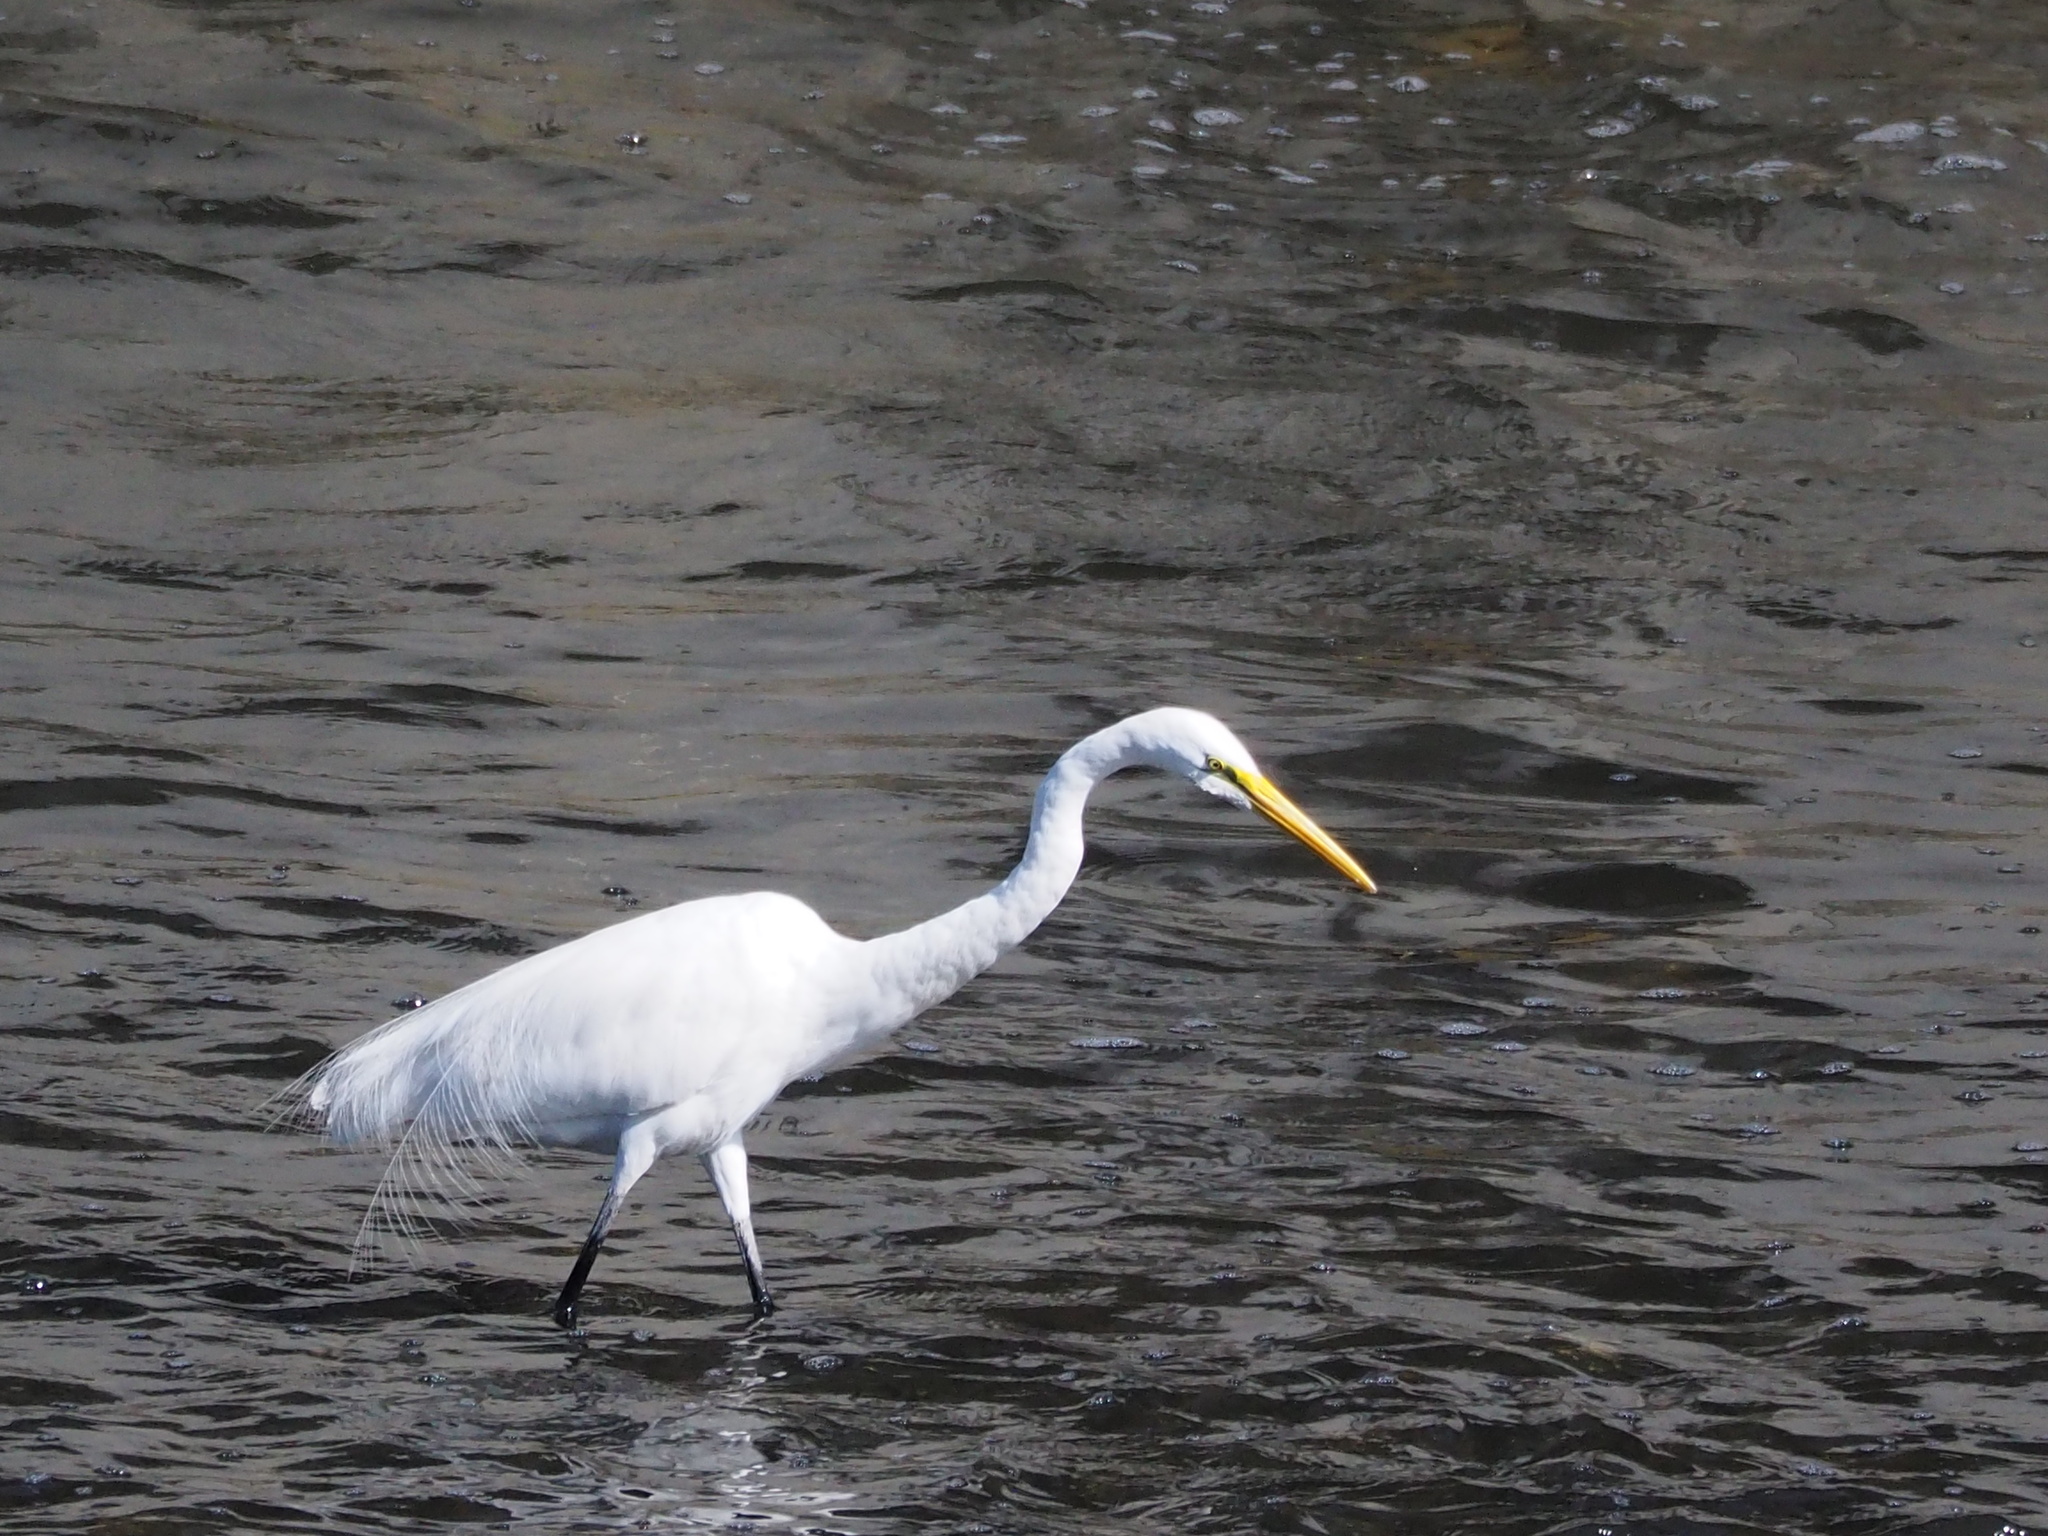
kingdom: Animalia
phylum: Chordata
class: Aves
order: Pelecaniformes
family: Ardeidae
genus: Ardea
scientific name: Ardea alba
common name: Great egret
